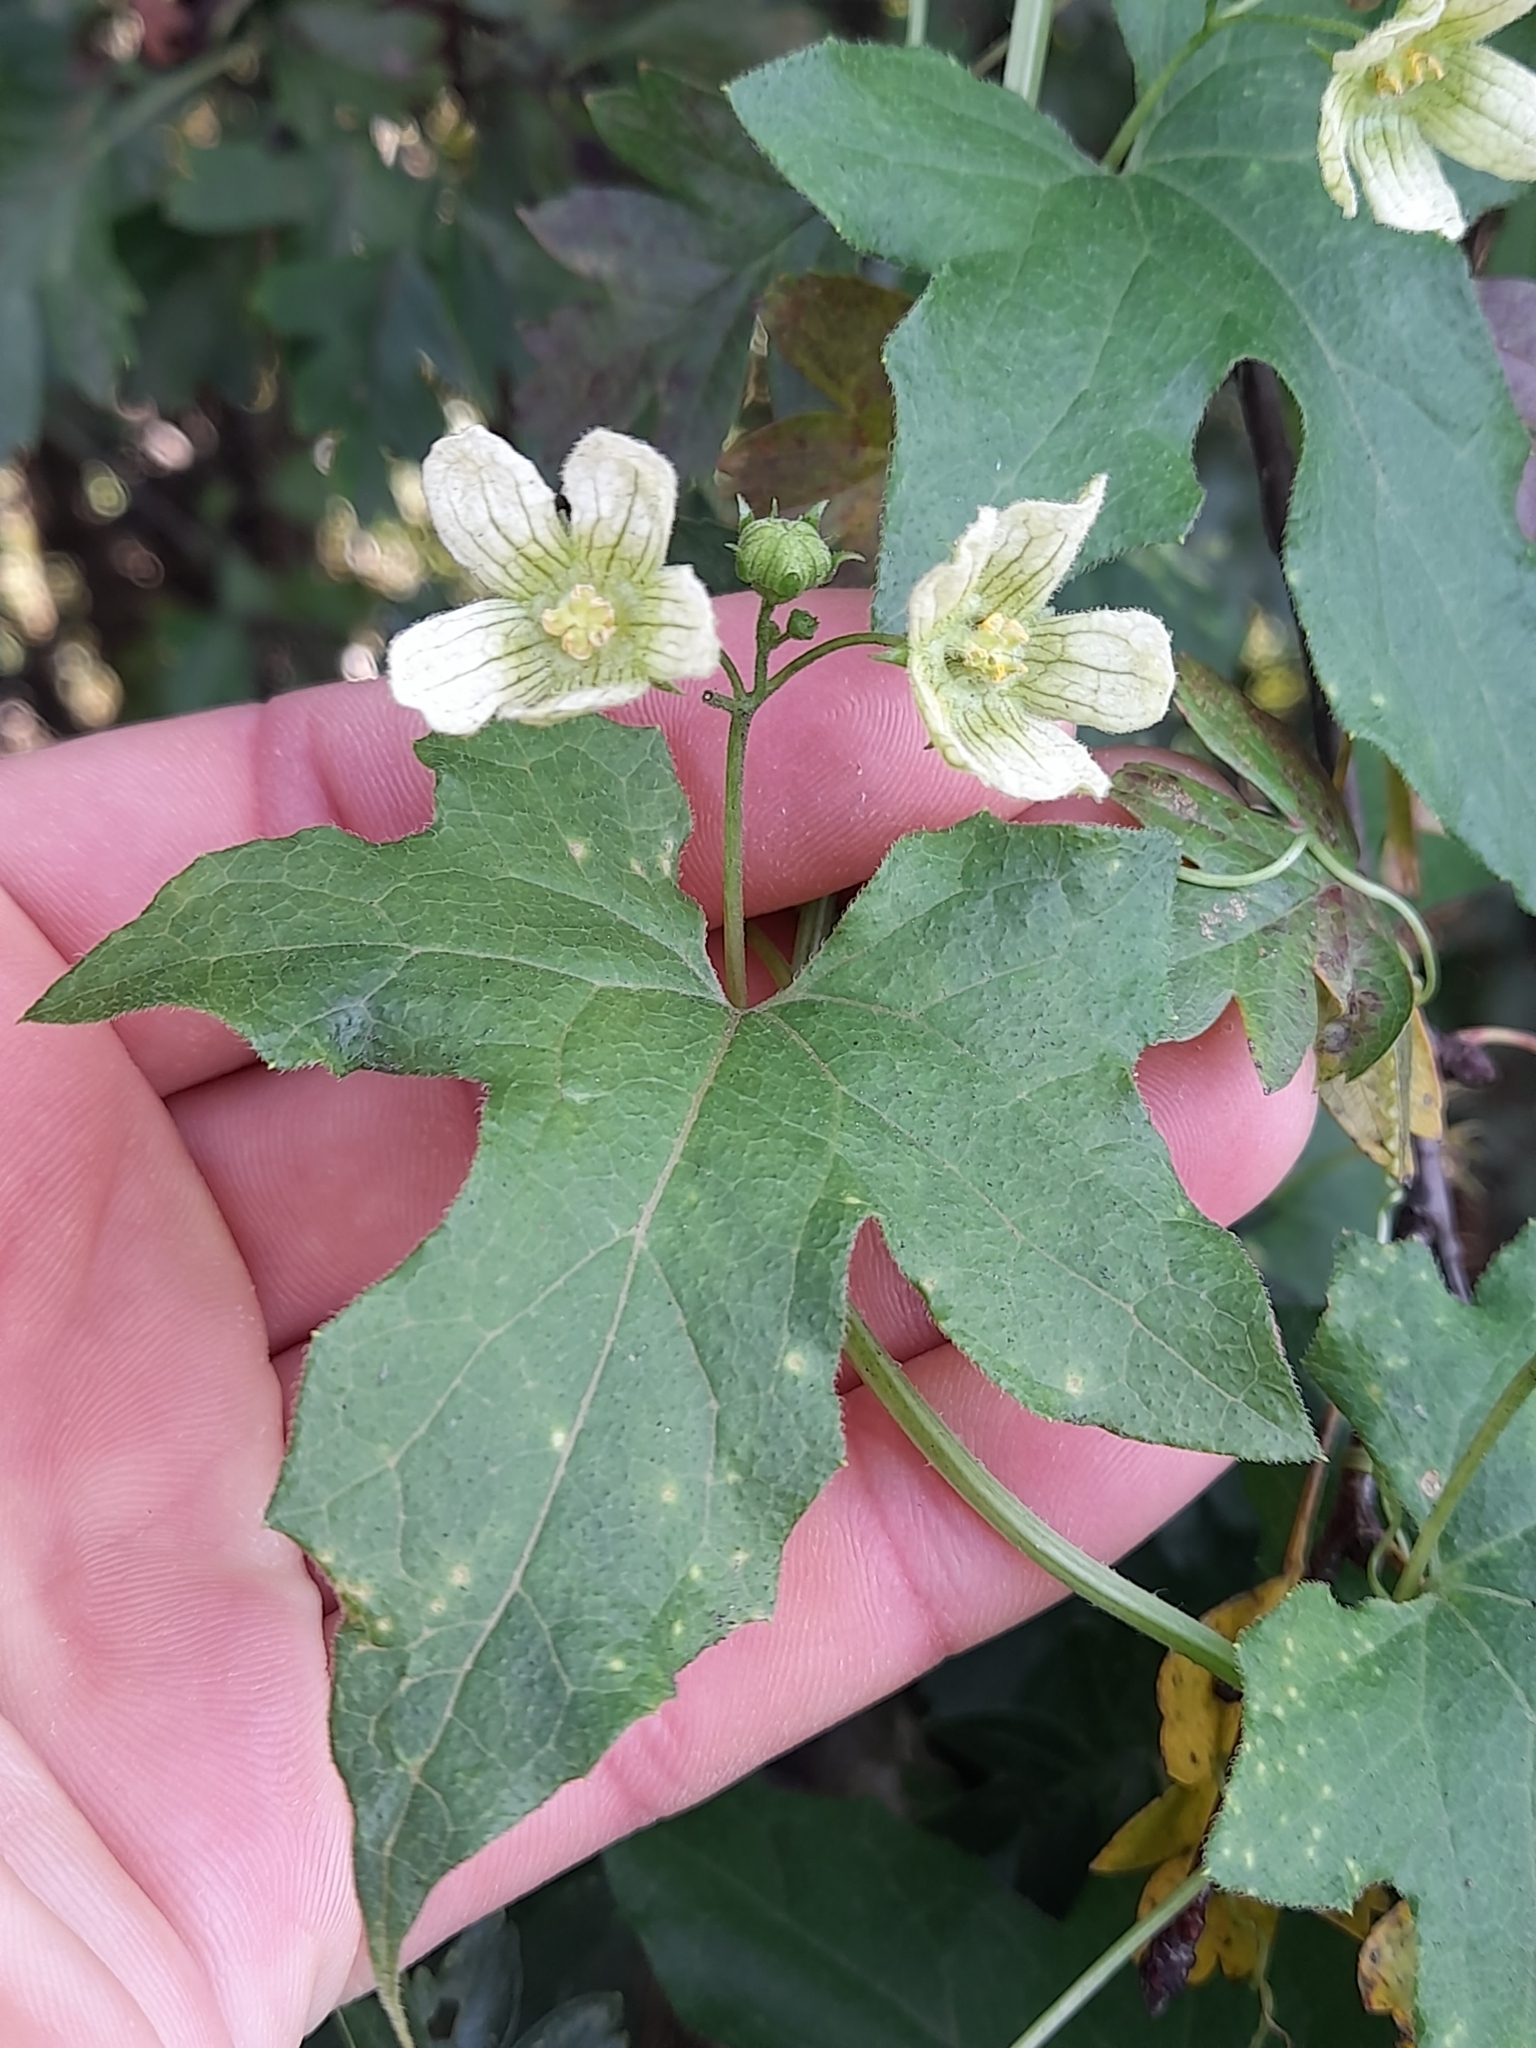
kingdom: Plantae
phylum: Tracheophyta
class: Magnoliopsida
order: Cucurbitales
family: Cucurbitaceae
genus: Bryonia
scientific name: Bryonia cretica
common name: Cretan bryony
